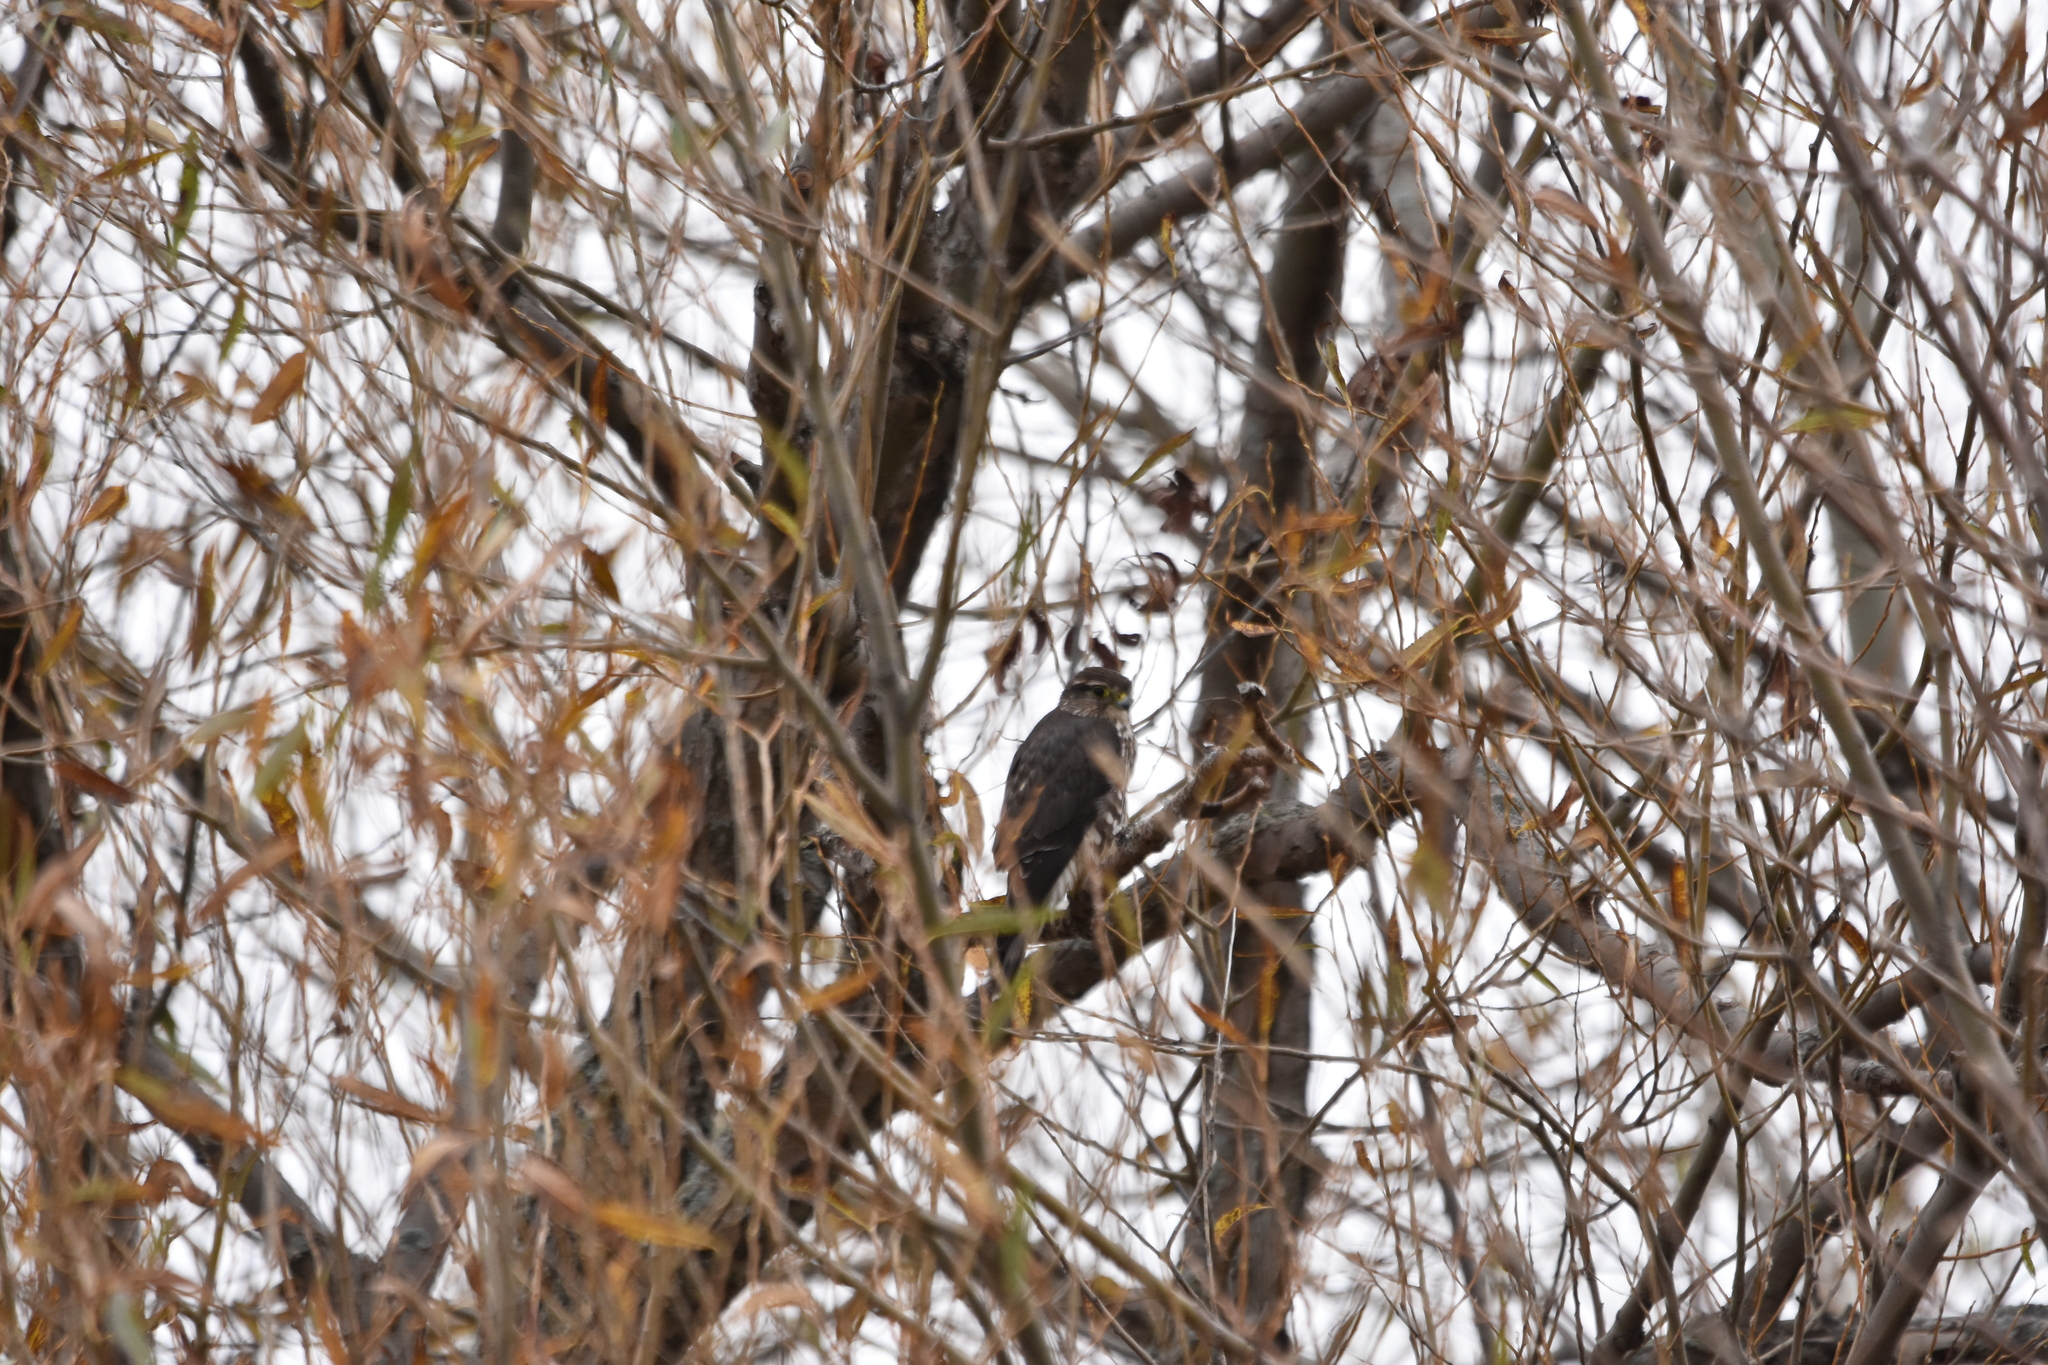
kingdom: Animalia
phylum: Chordata
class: Aves
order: Falconiformes
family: Falconidae
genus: Falco
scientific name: Falco columbarius
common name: Merlin
